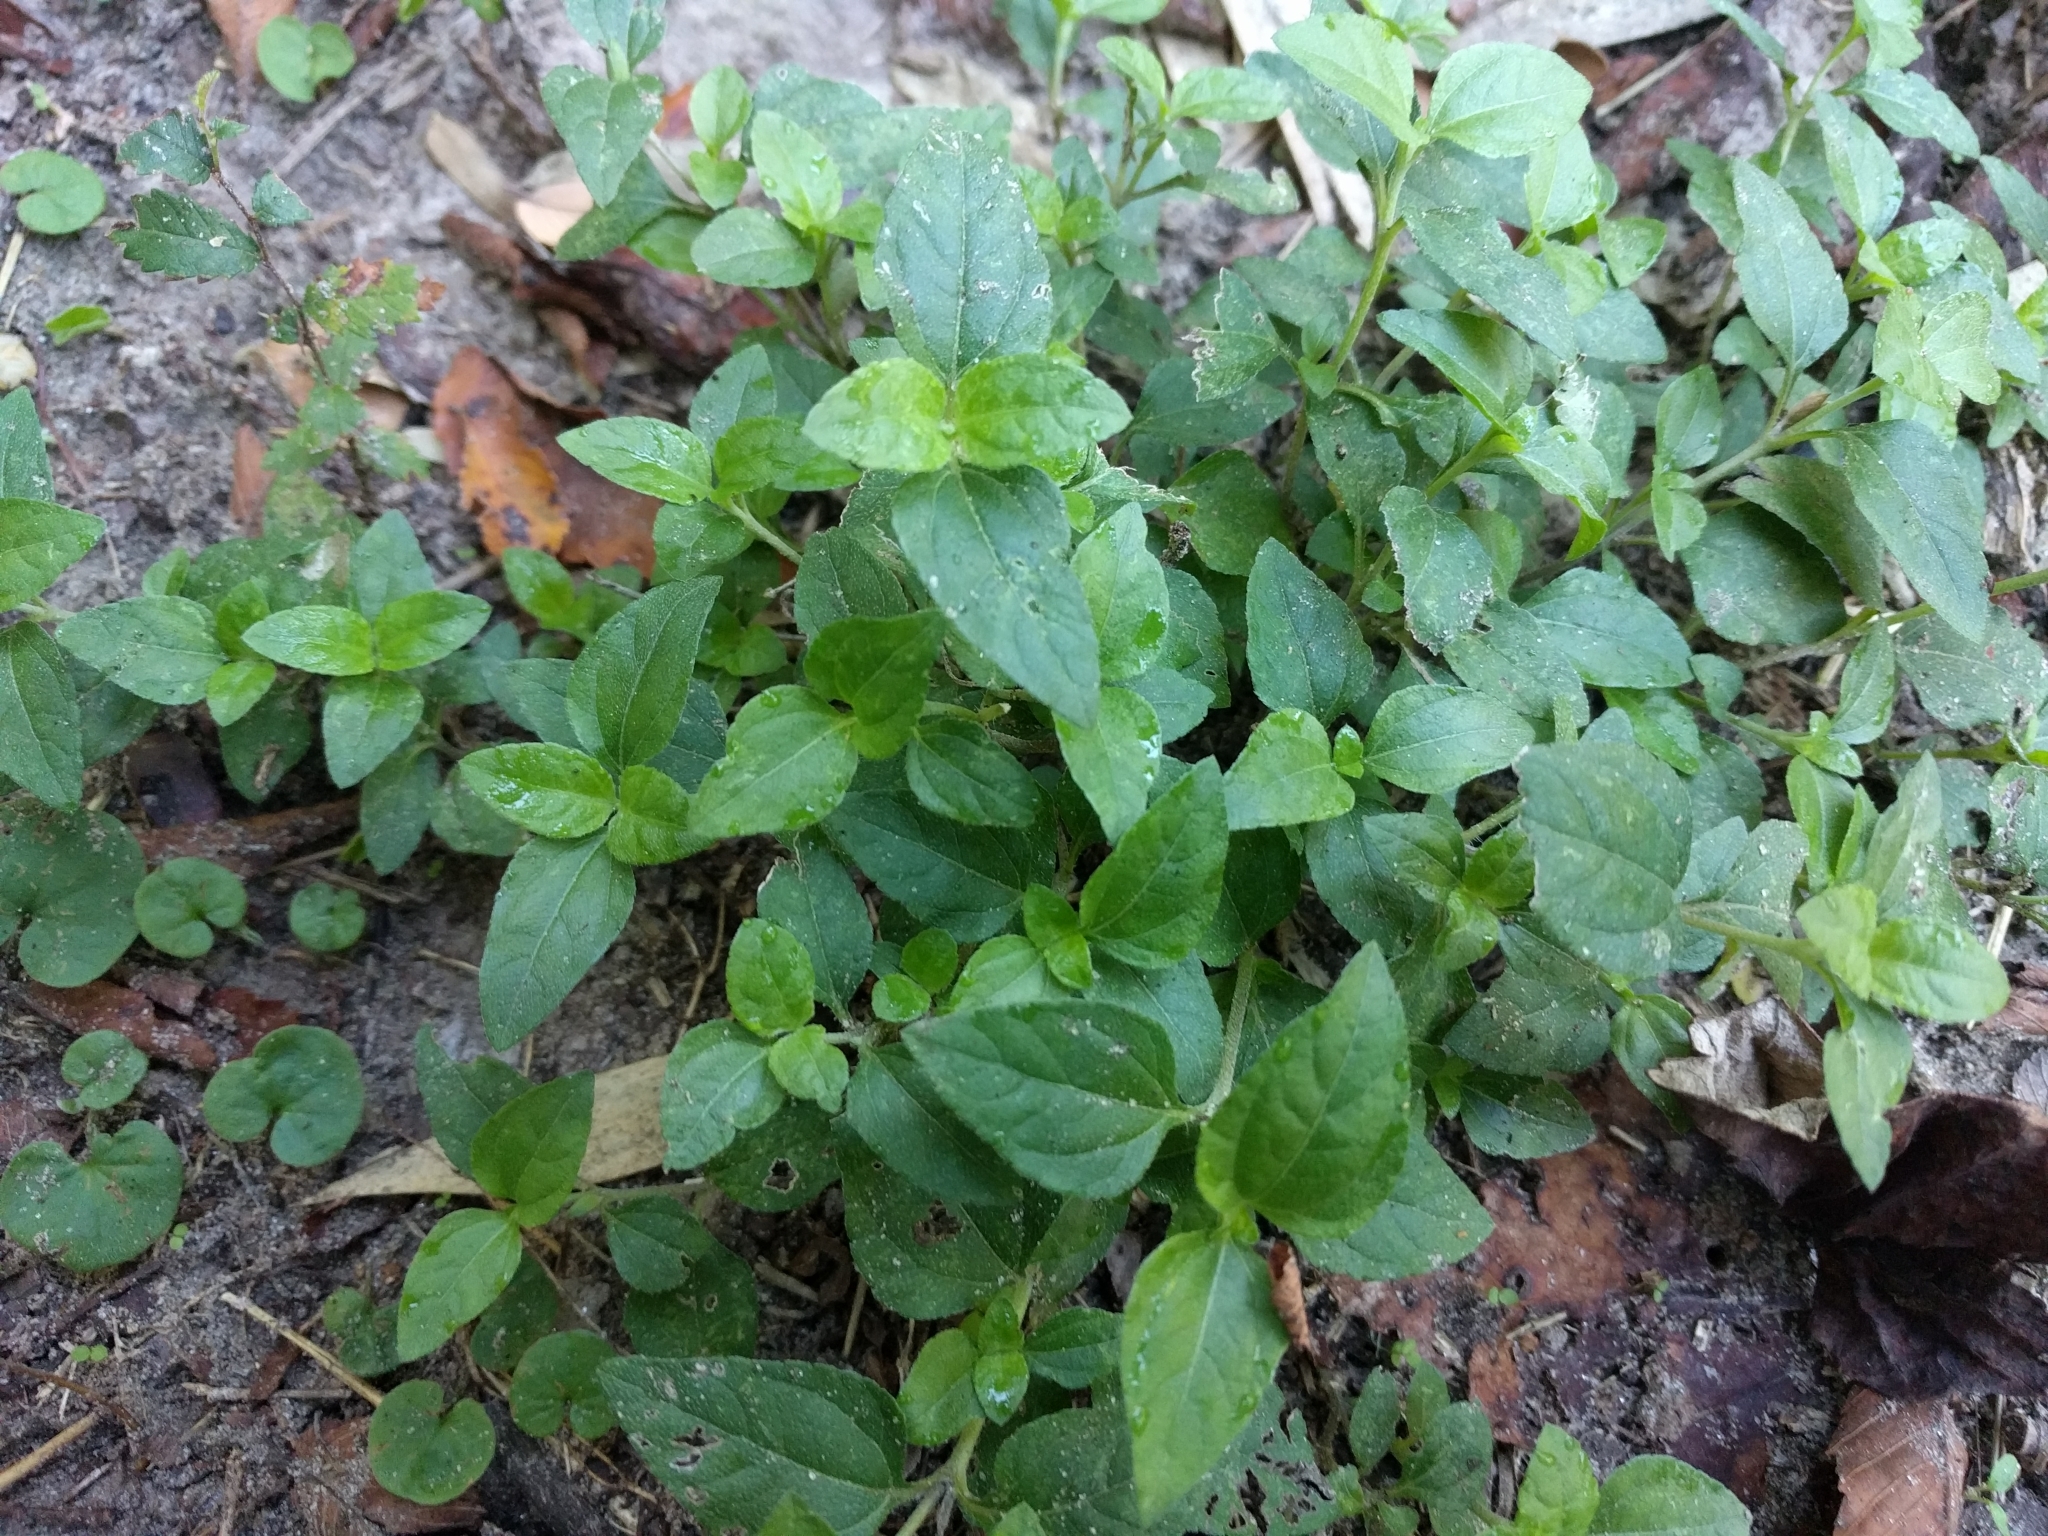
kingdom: Plantae
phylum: Tracheophyta
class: Magnoliopsida
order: Asterales
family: Asteraceae
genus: Calyptocarpus
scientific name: Calyptocarpus vialis
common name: Straggler daisy
